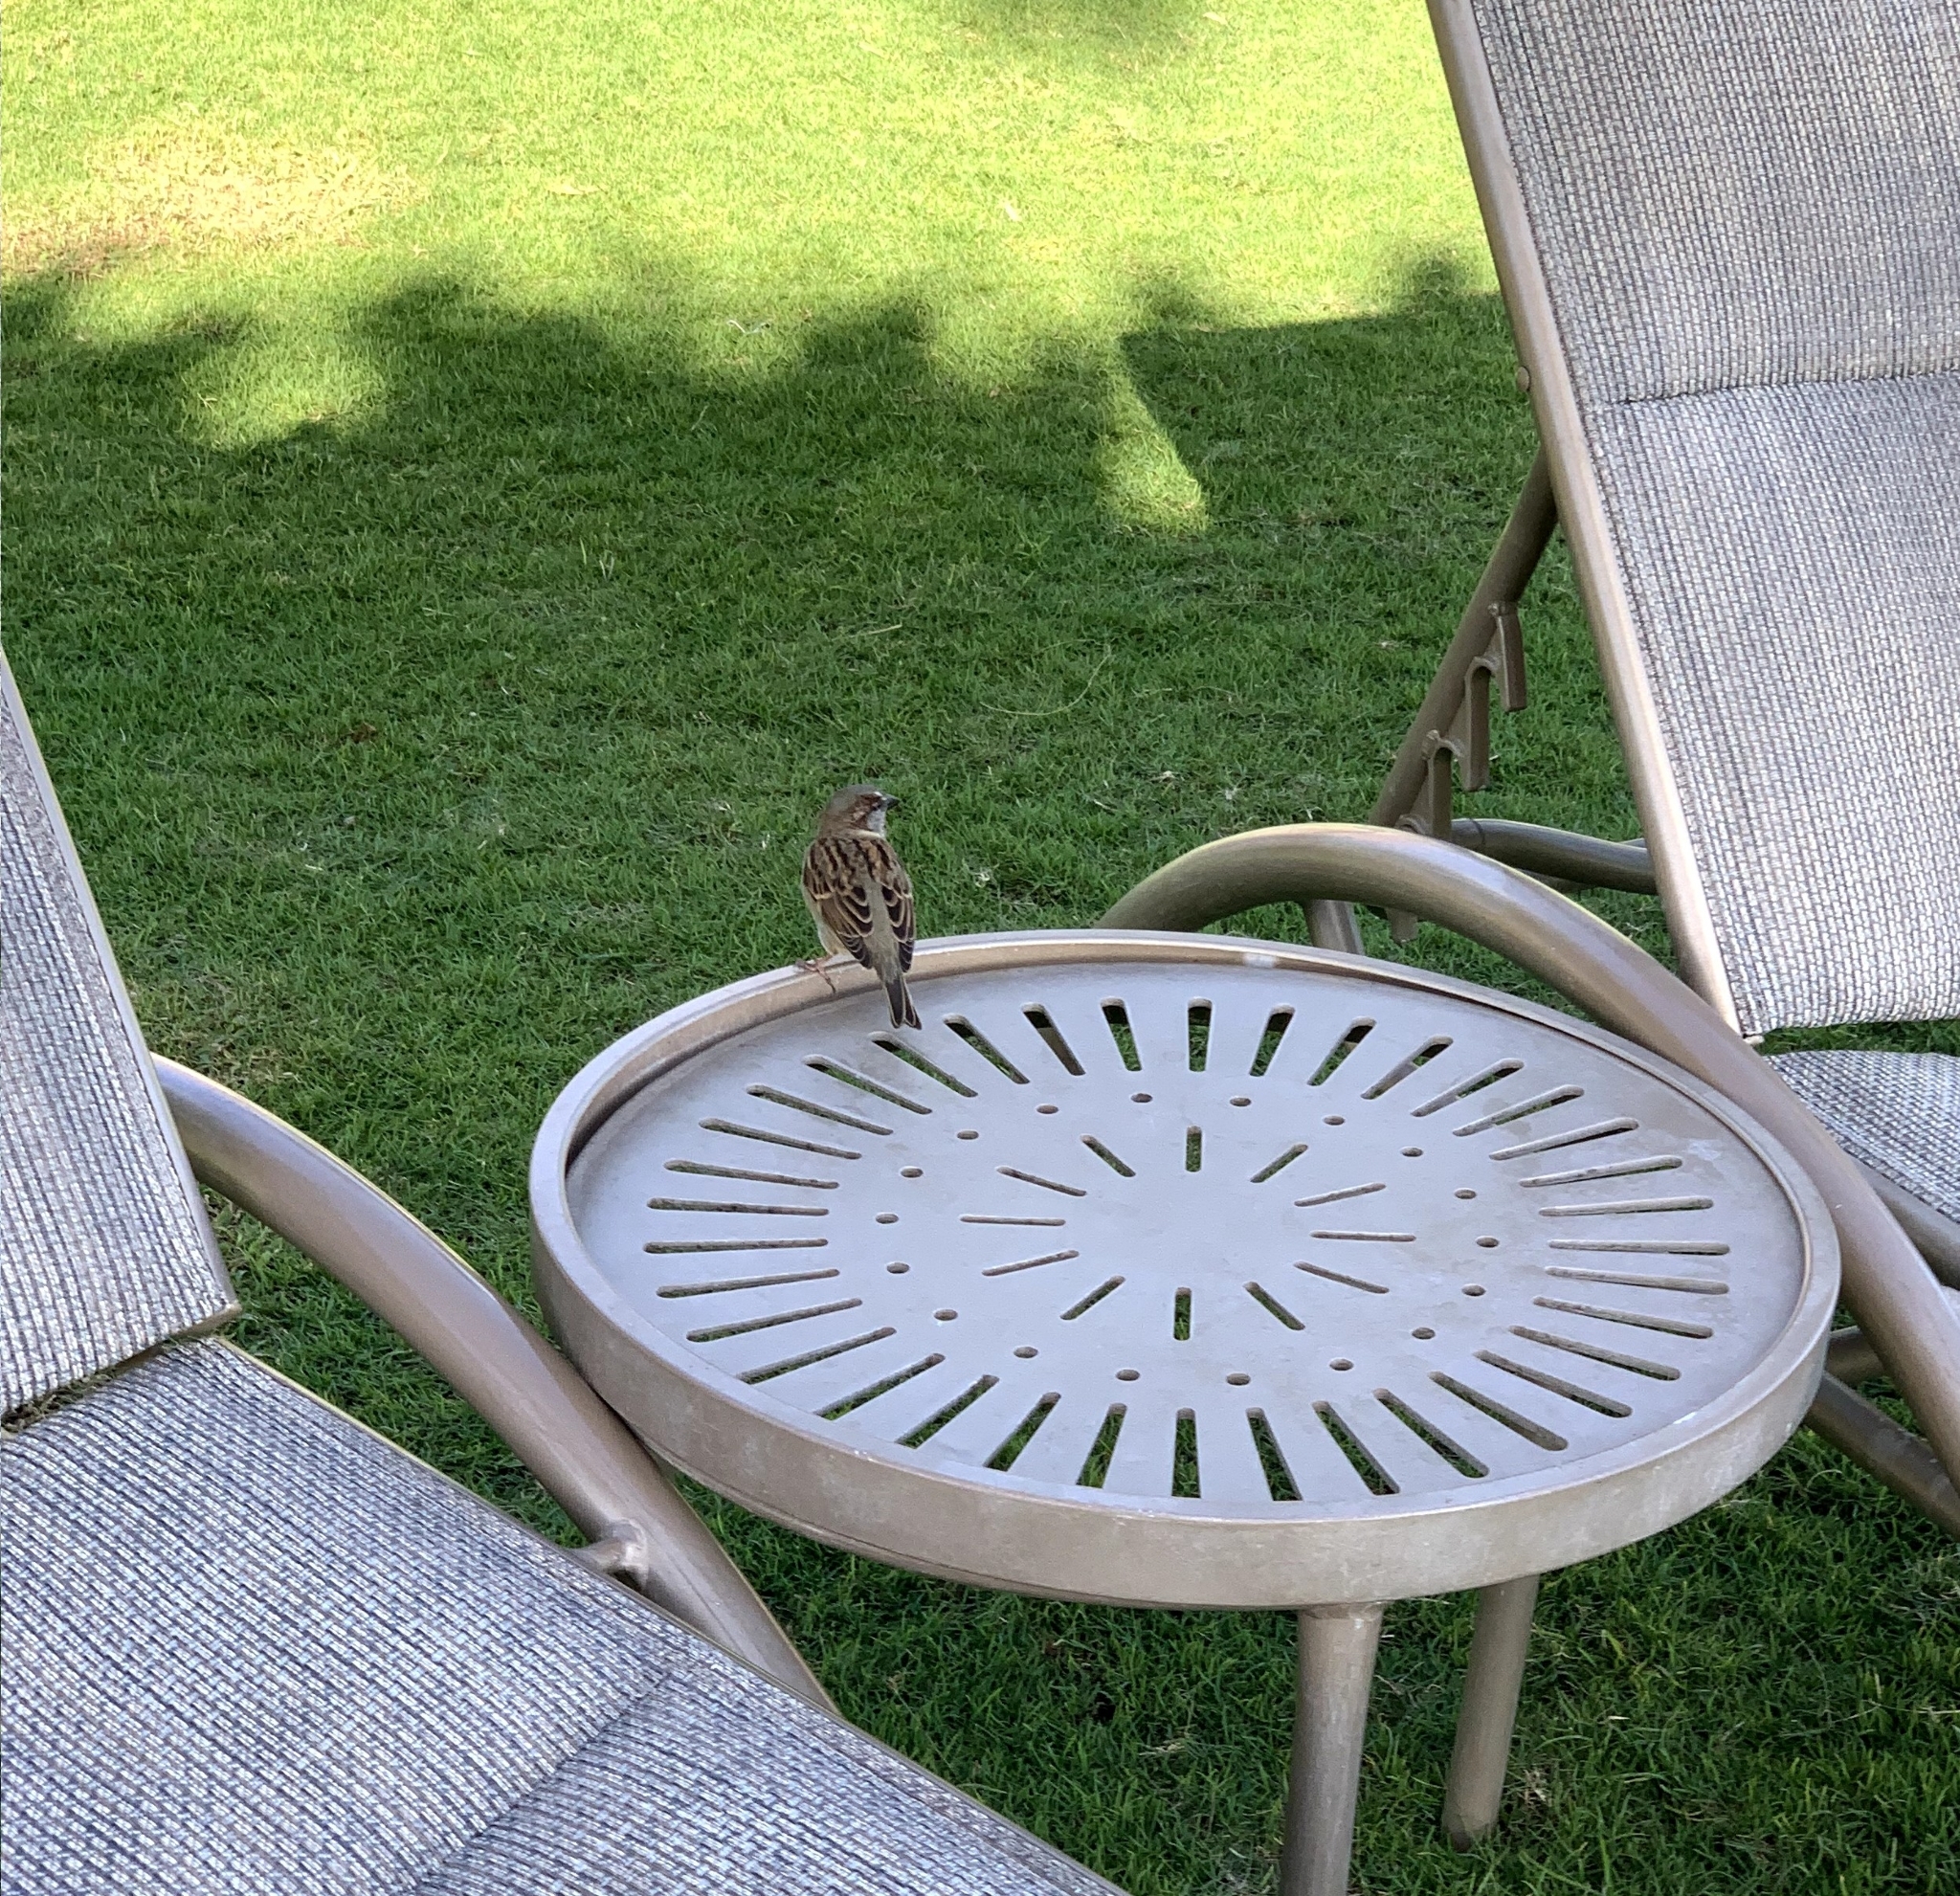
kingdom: Animalia
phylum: Chordata
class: Aves
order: Passeriformes
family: Passeridae
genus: Passer
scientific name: Passer domesticus
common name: House sparrow
